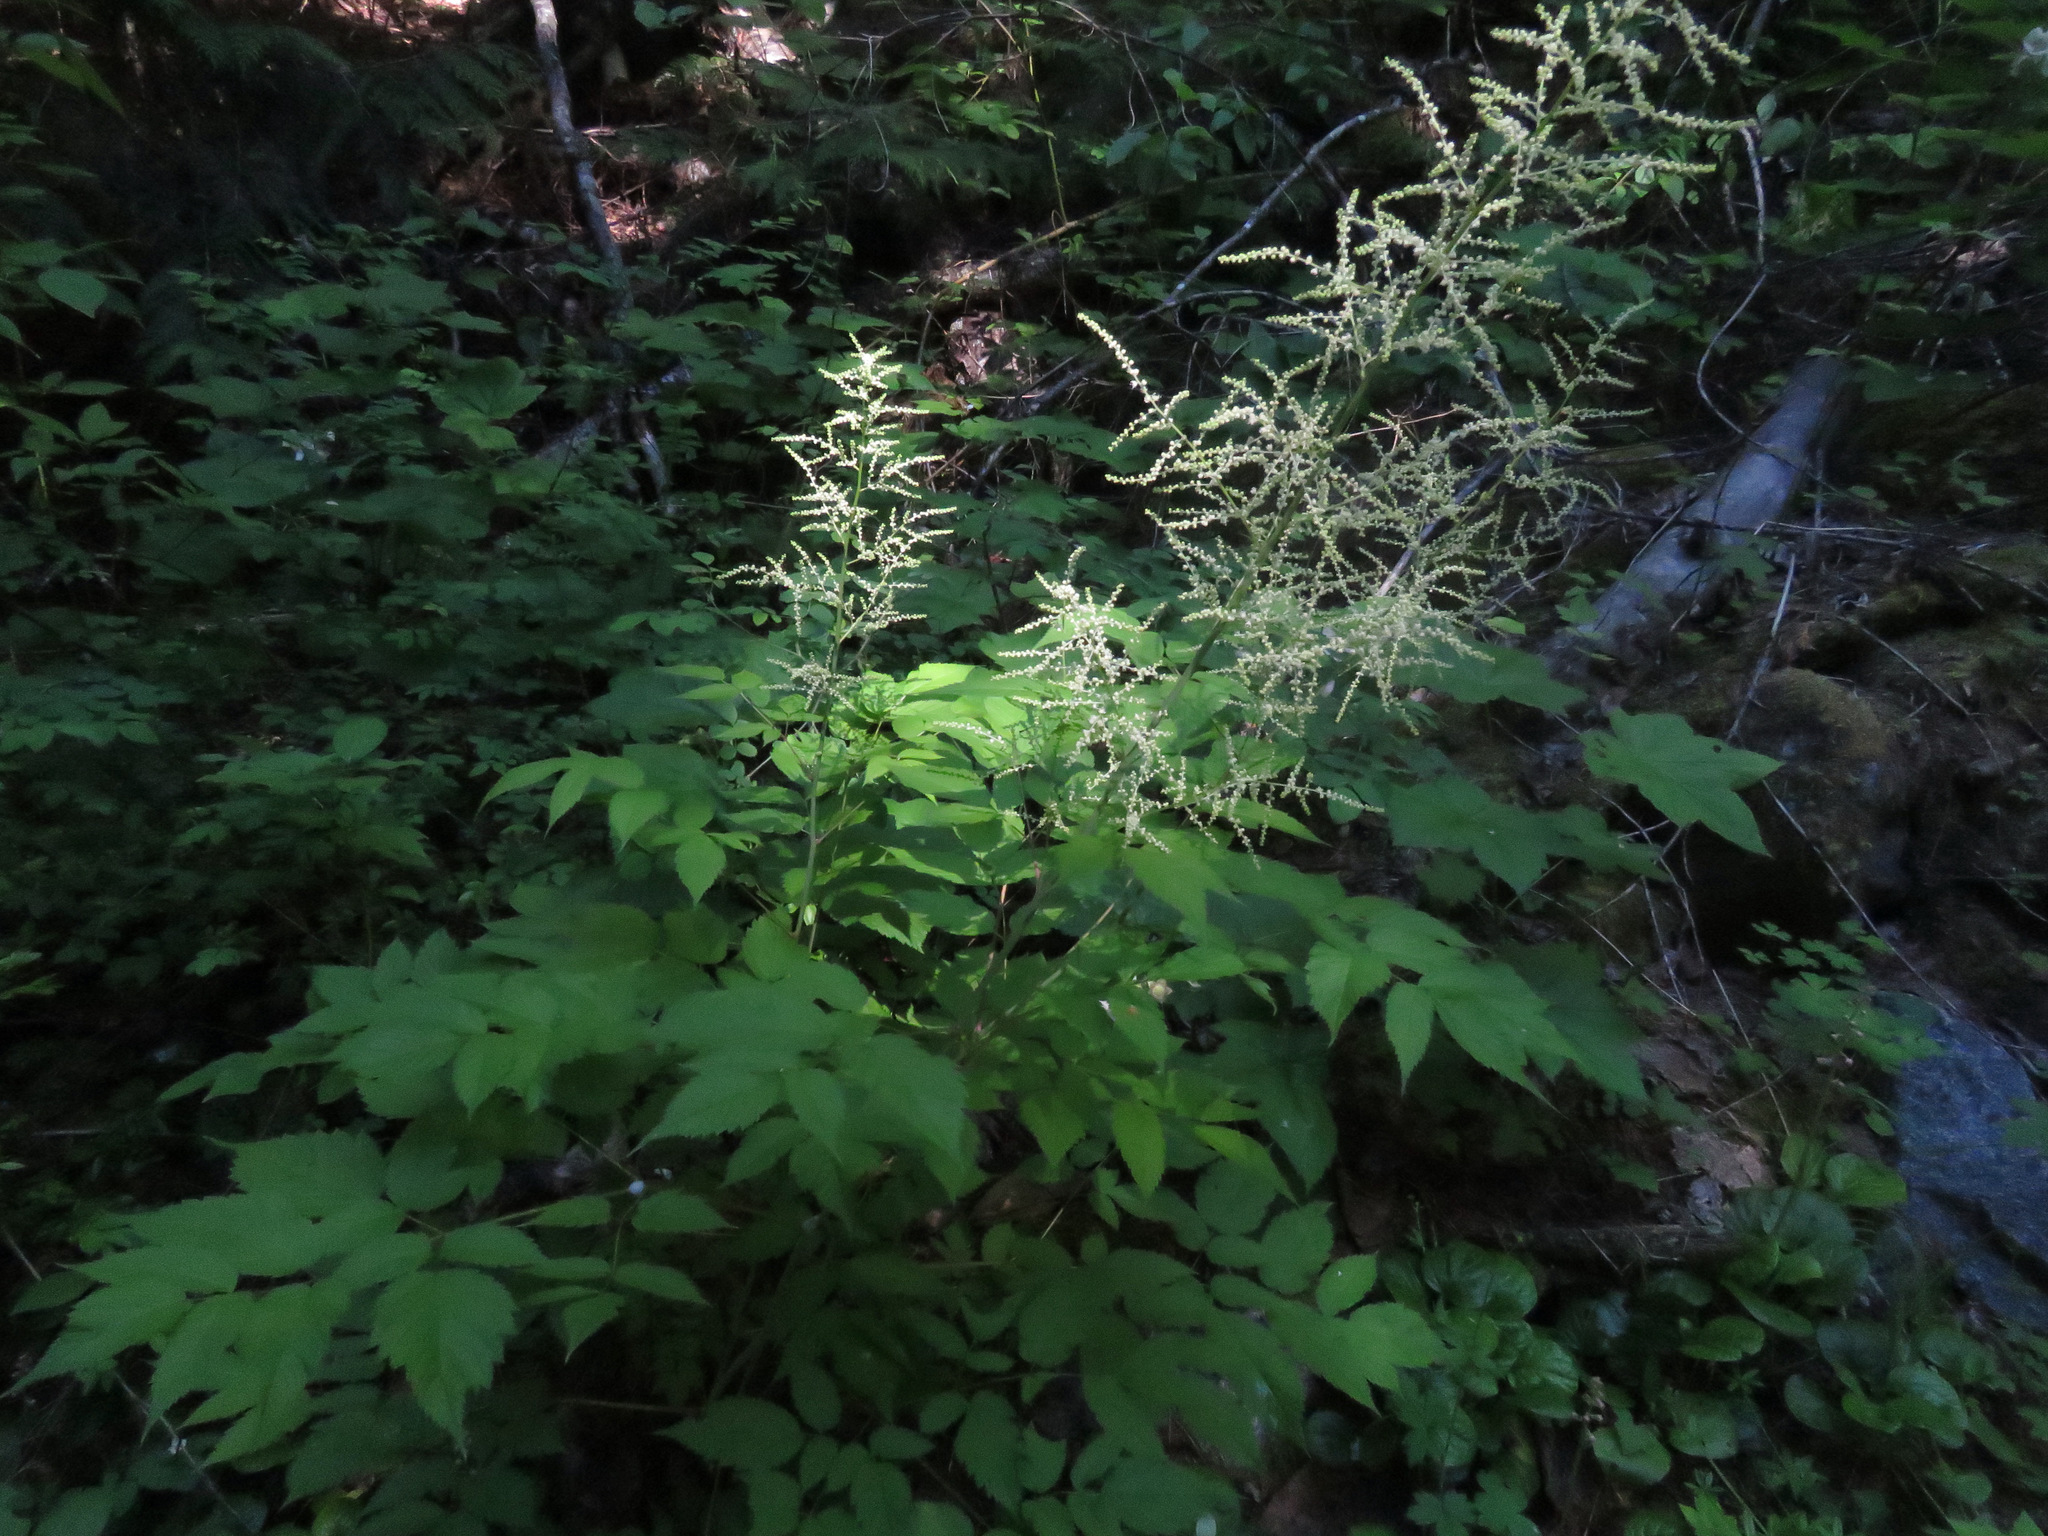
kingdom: Plantae
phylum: Tracheophyta
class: Magnoliopsida
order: Rosales
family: Rosaceae
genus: Aruncus
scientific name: Aruncus dioicus
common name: Buck's-beard
